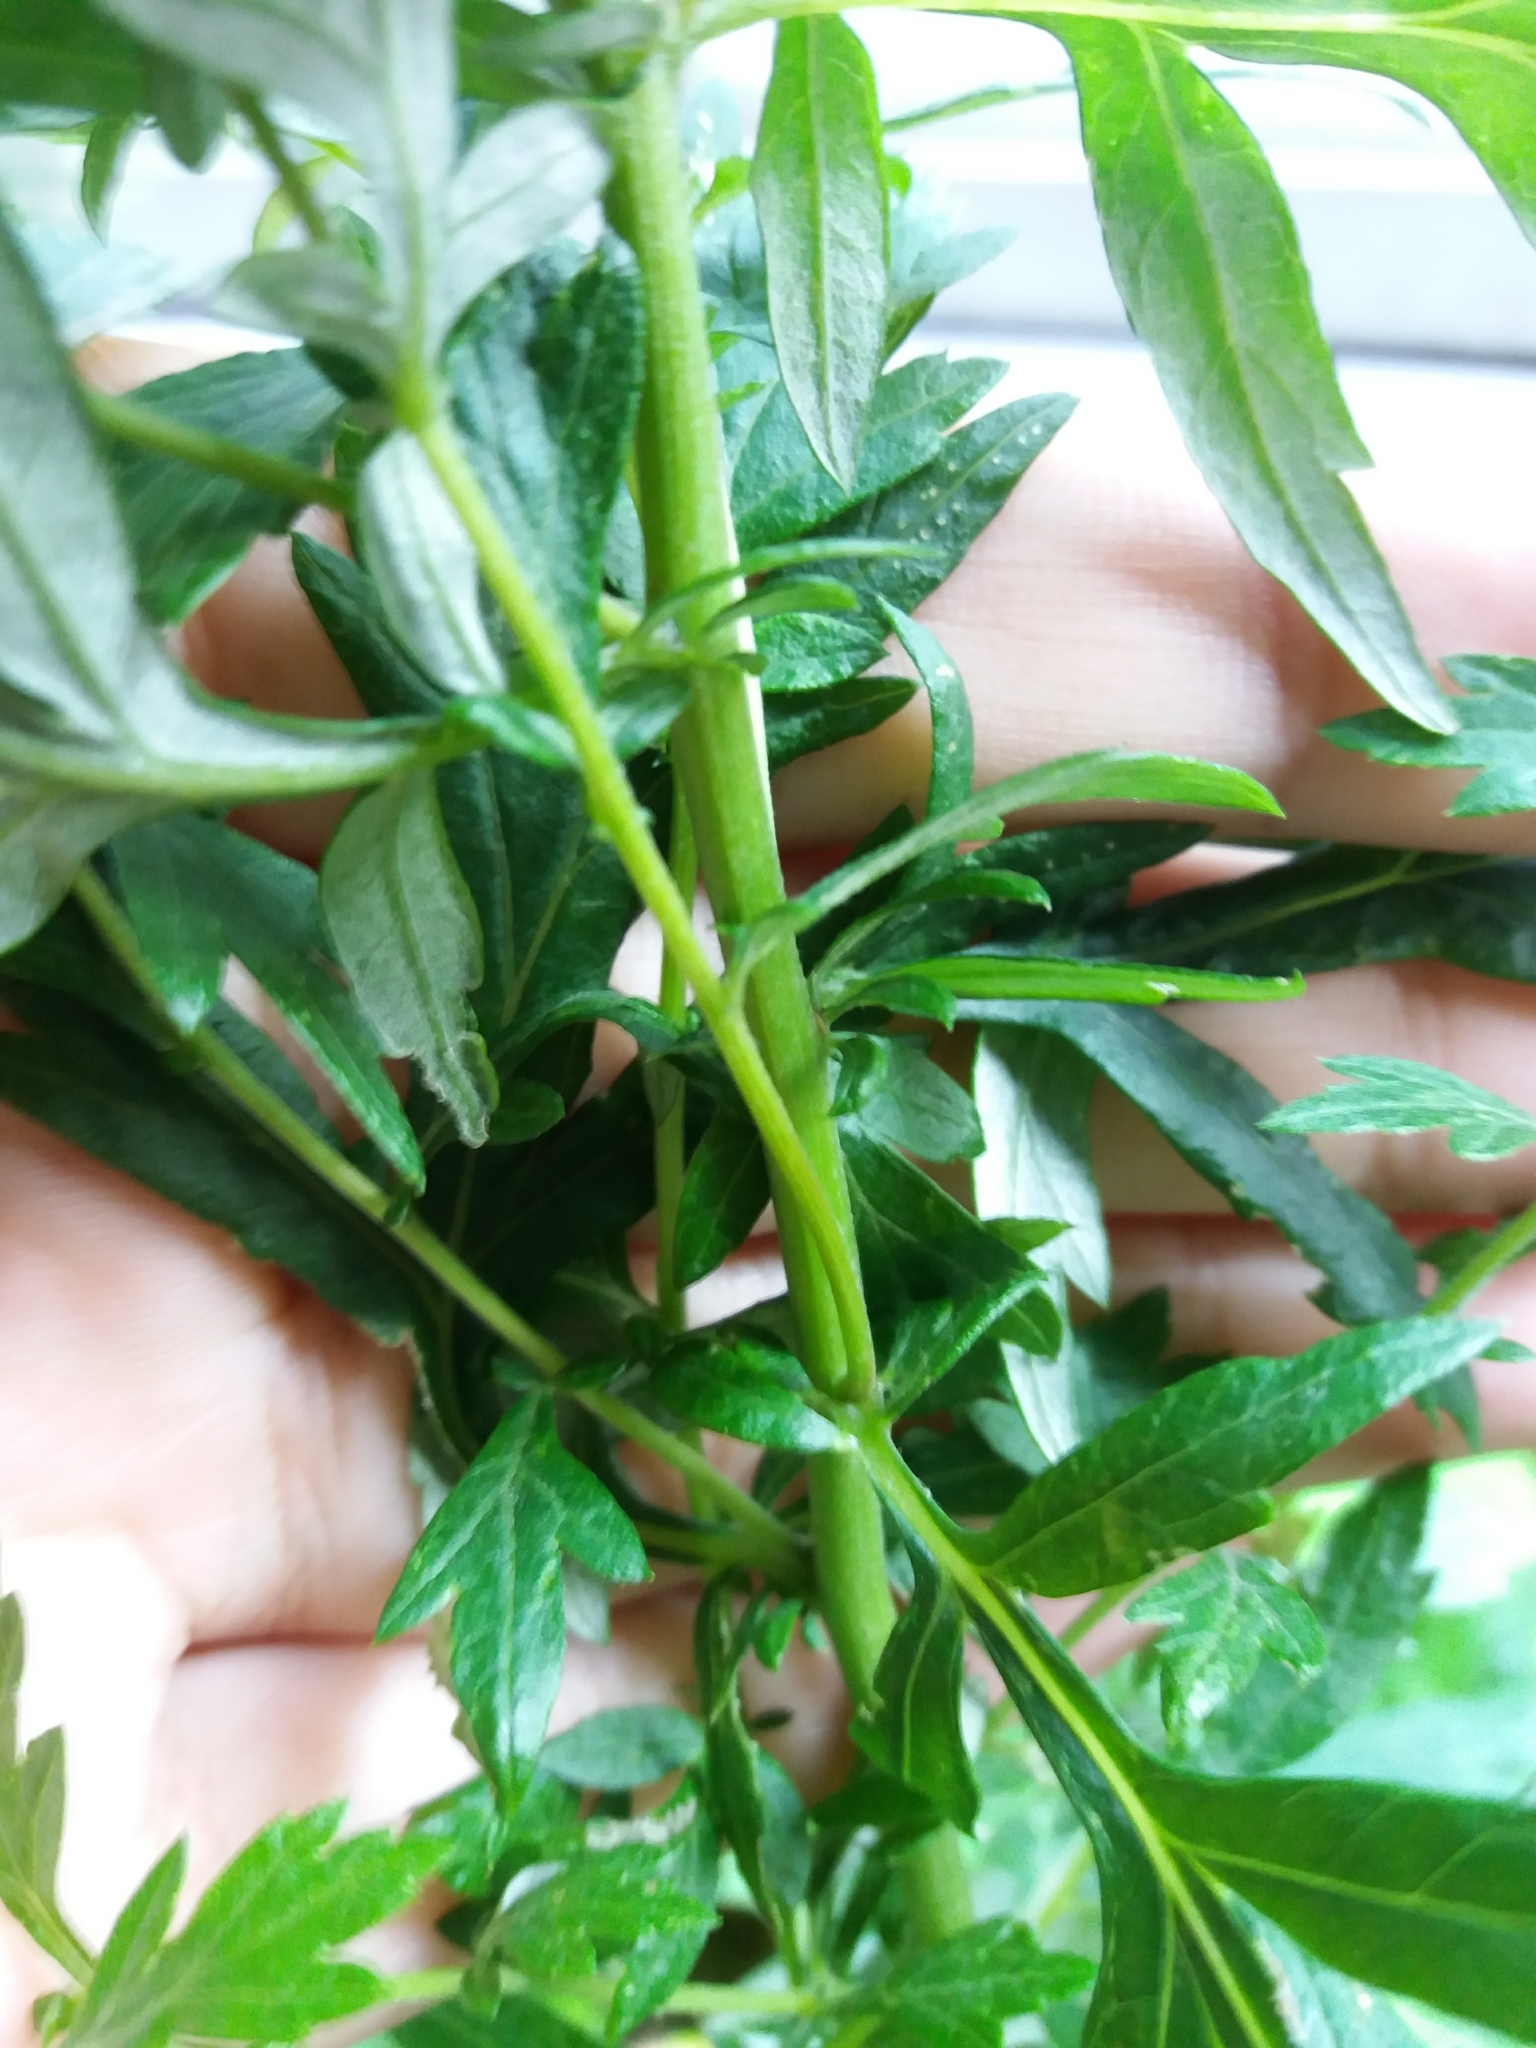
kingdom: Plantae
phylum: Tracheophyta
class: Magnoliopsida
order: Asterales
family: Asteraceae
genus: Artemisia
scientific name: Artemisia vulgaris
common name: Mugwort
